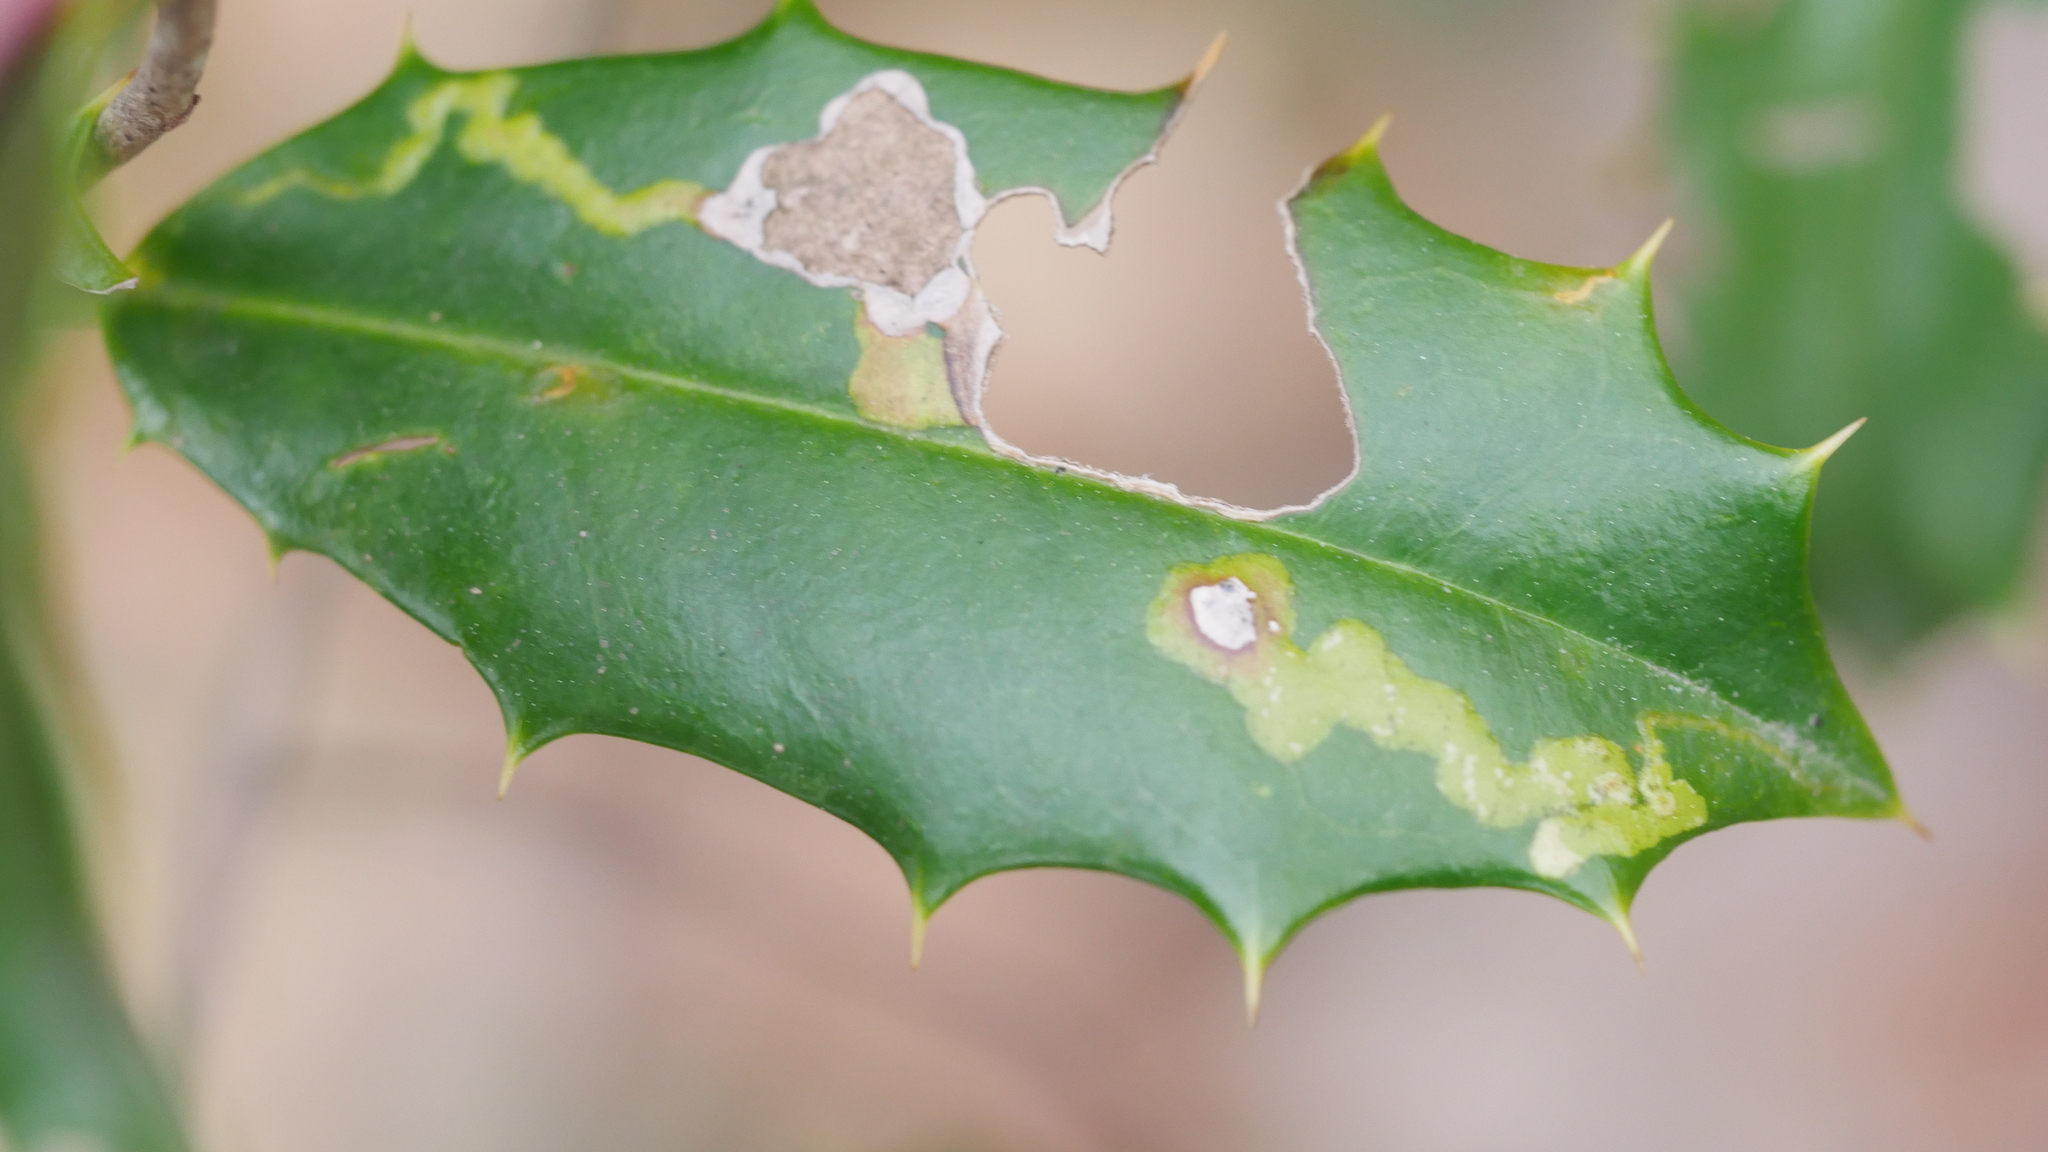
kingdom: Animalia
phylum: Arthropoda
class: Insecta
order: Diptera
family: Agromyzidae
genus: Phytomyza
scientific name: Phytomyza ilicicola
